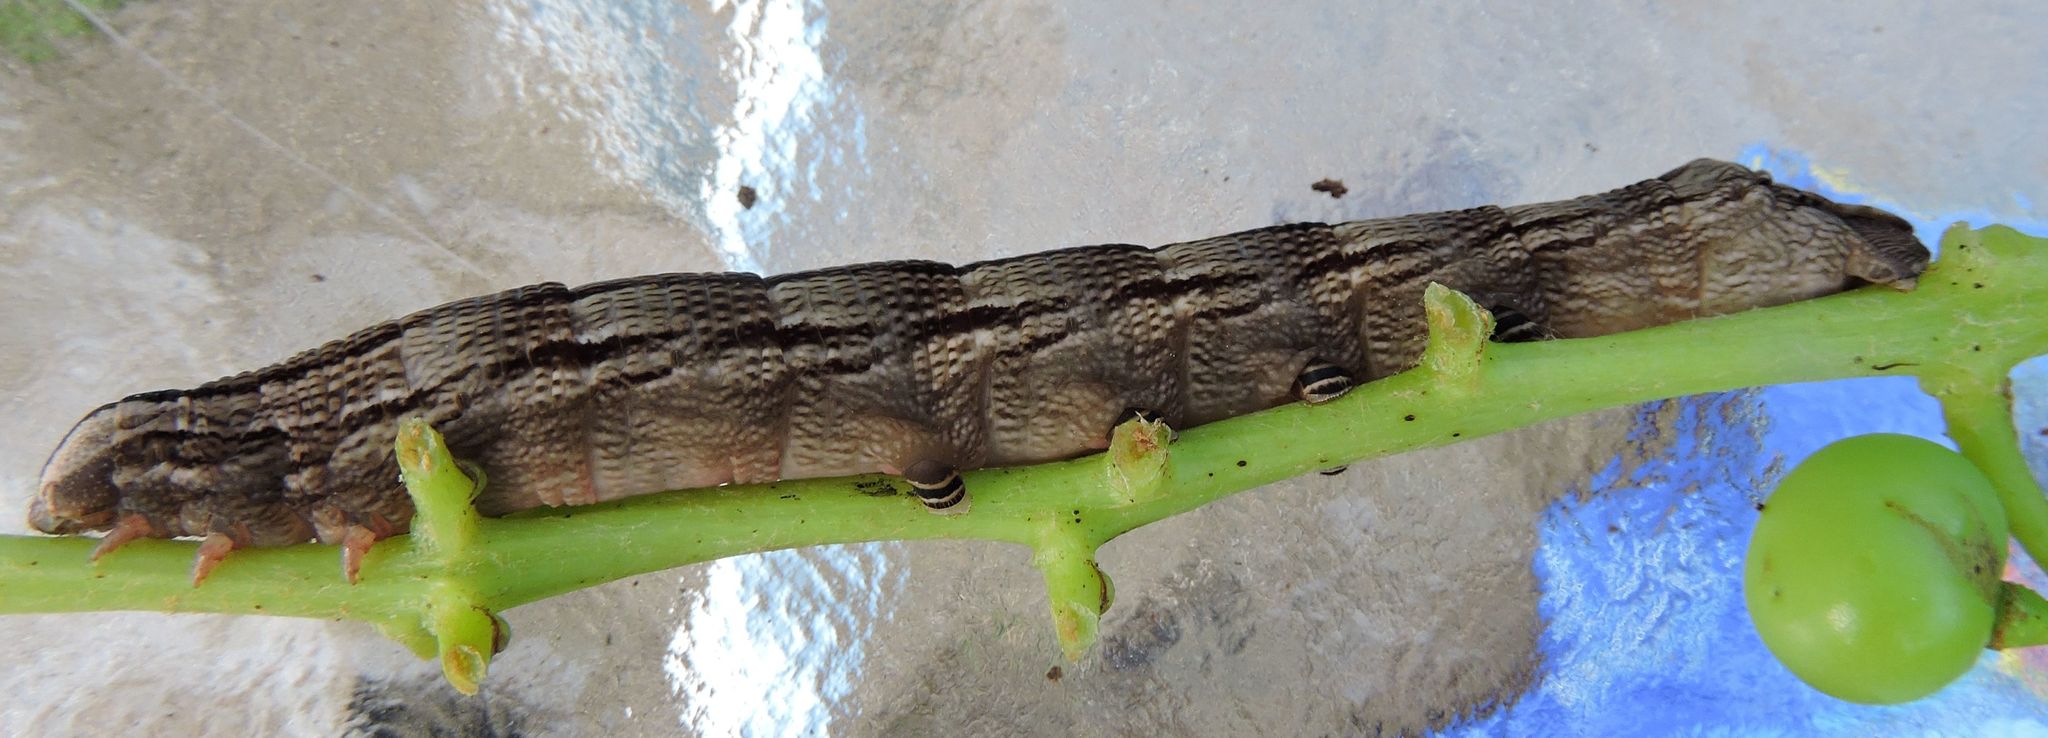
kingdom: Animalia
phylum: Arthropoda
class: Insecta
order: Lepidoptera
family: Sphingidae
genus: Sphecodina
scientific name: Sphecodina abbottii
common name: Abbott's sphinx
